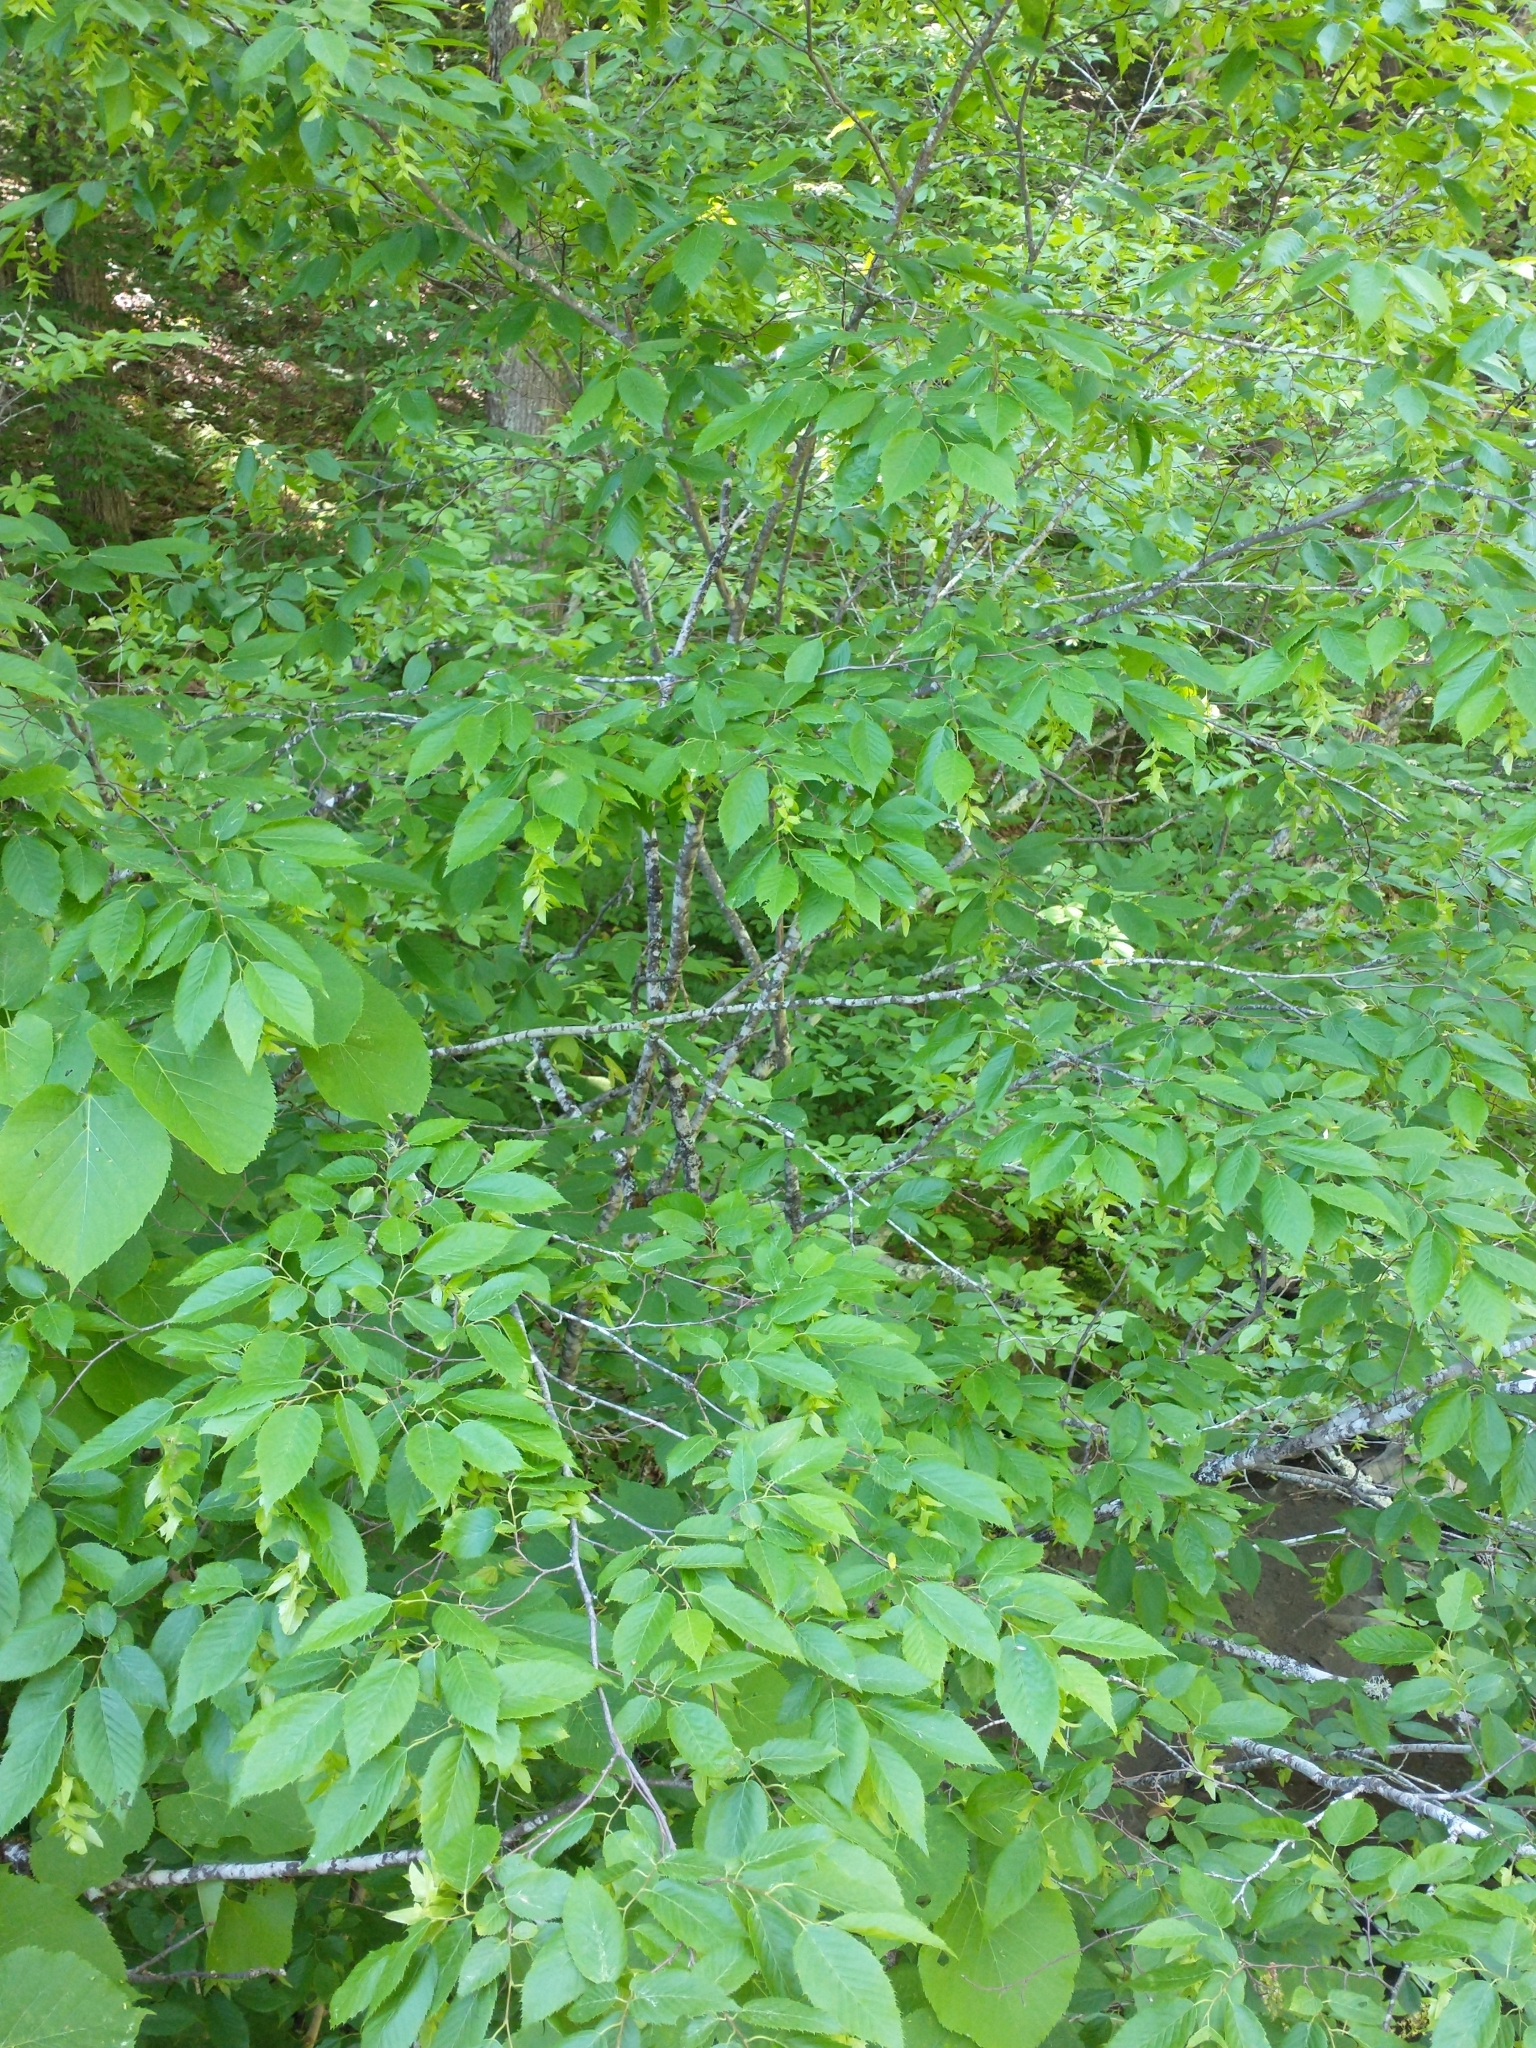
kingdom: Plantae
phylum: Tracheophyta
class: Magnoliopsida
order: Fagales
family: Betulaceae
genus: Carpinus
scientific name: Carpinus caroliniana
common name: American hornbeam
